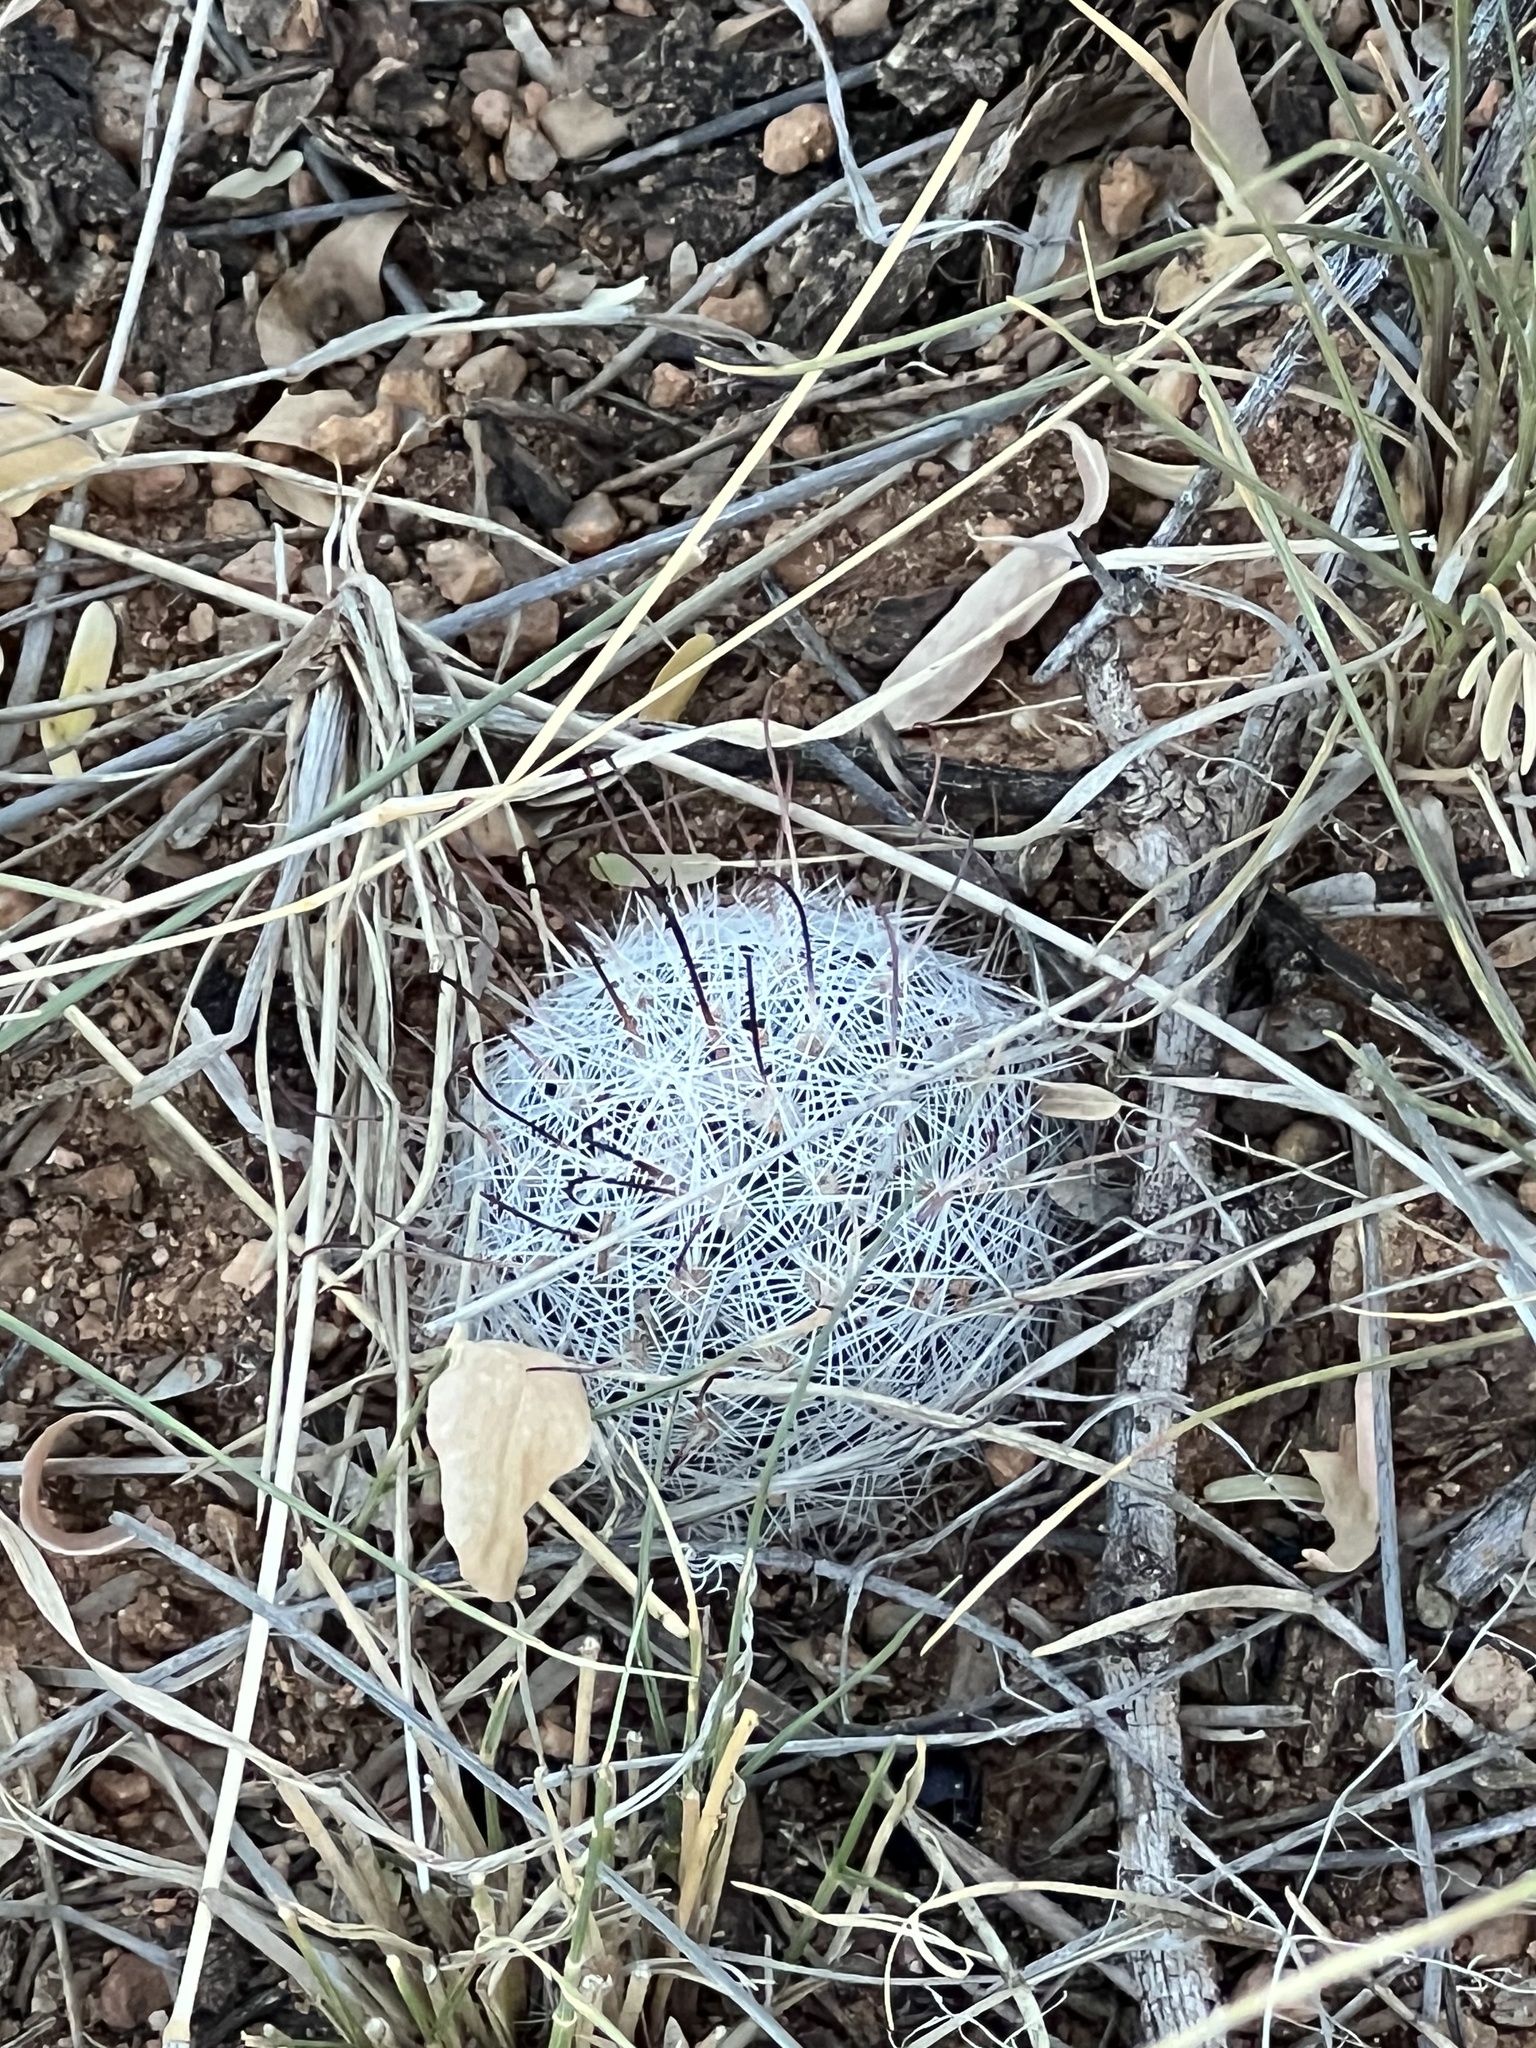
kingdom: Plantae
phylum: Tracheophyta
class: Magnoliopsida
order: Caryophyllales
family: Cactaceae
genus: Cochemiea
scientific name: Cochemiea grahamii
